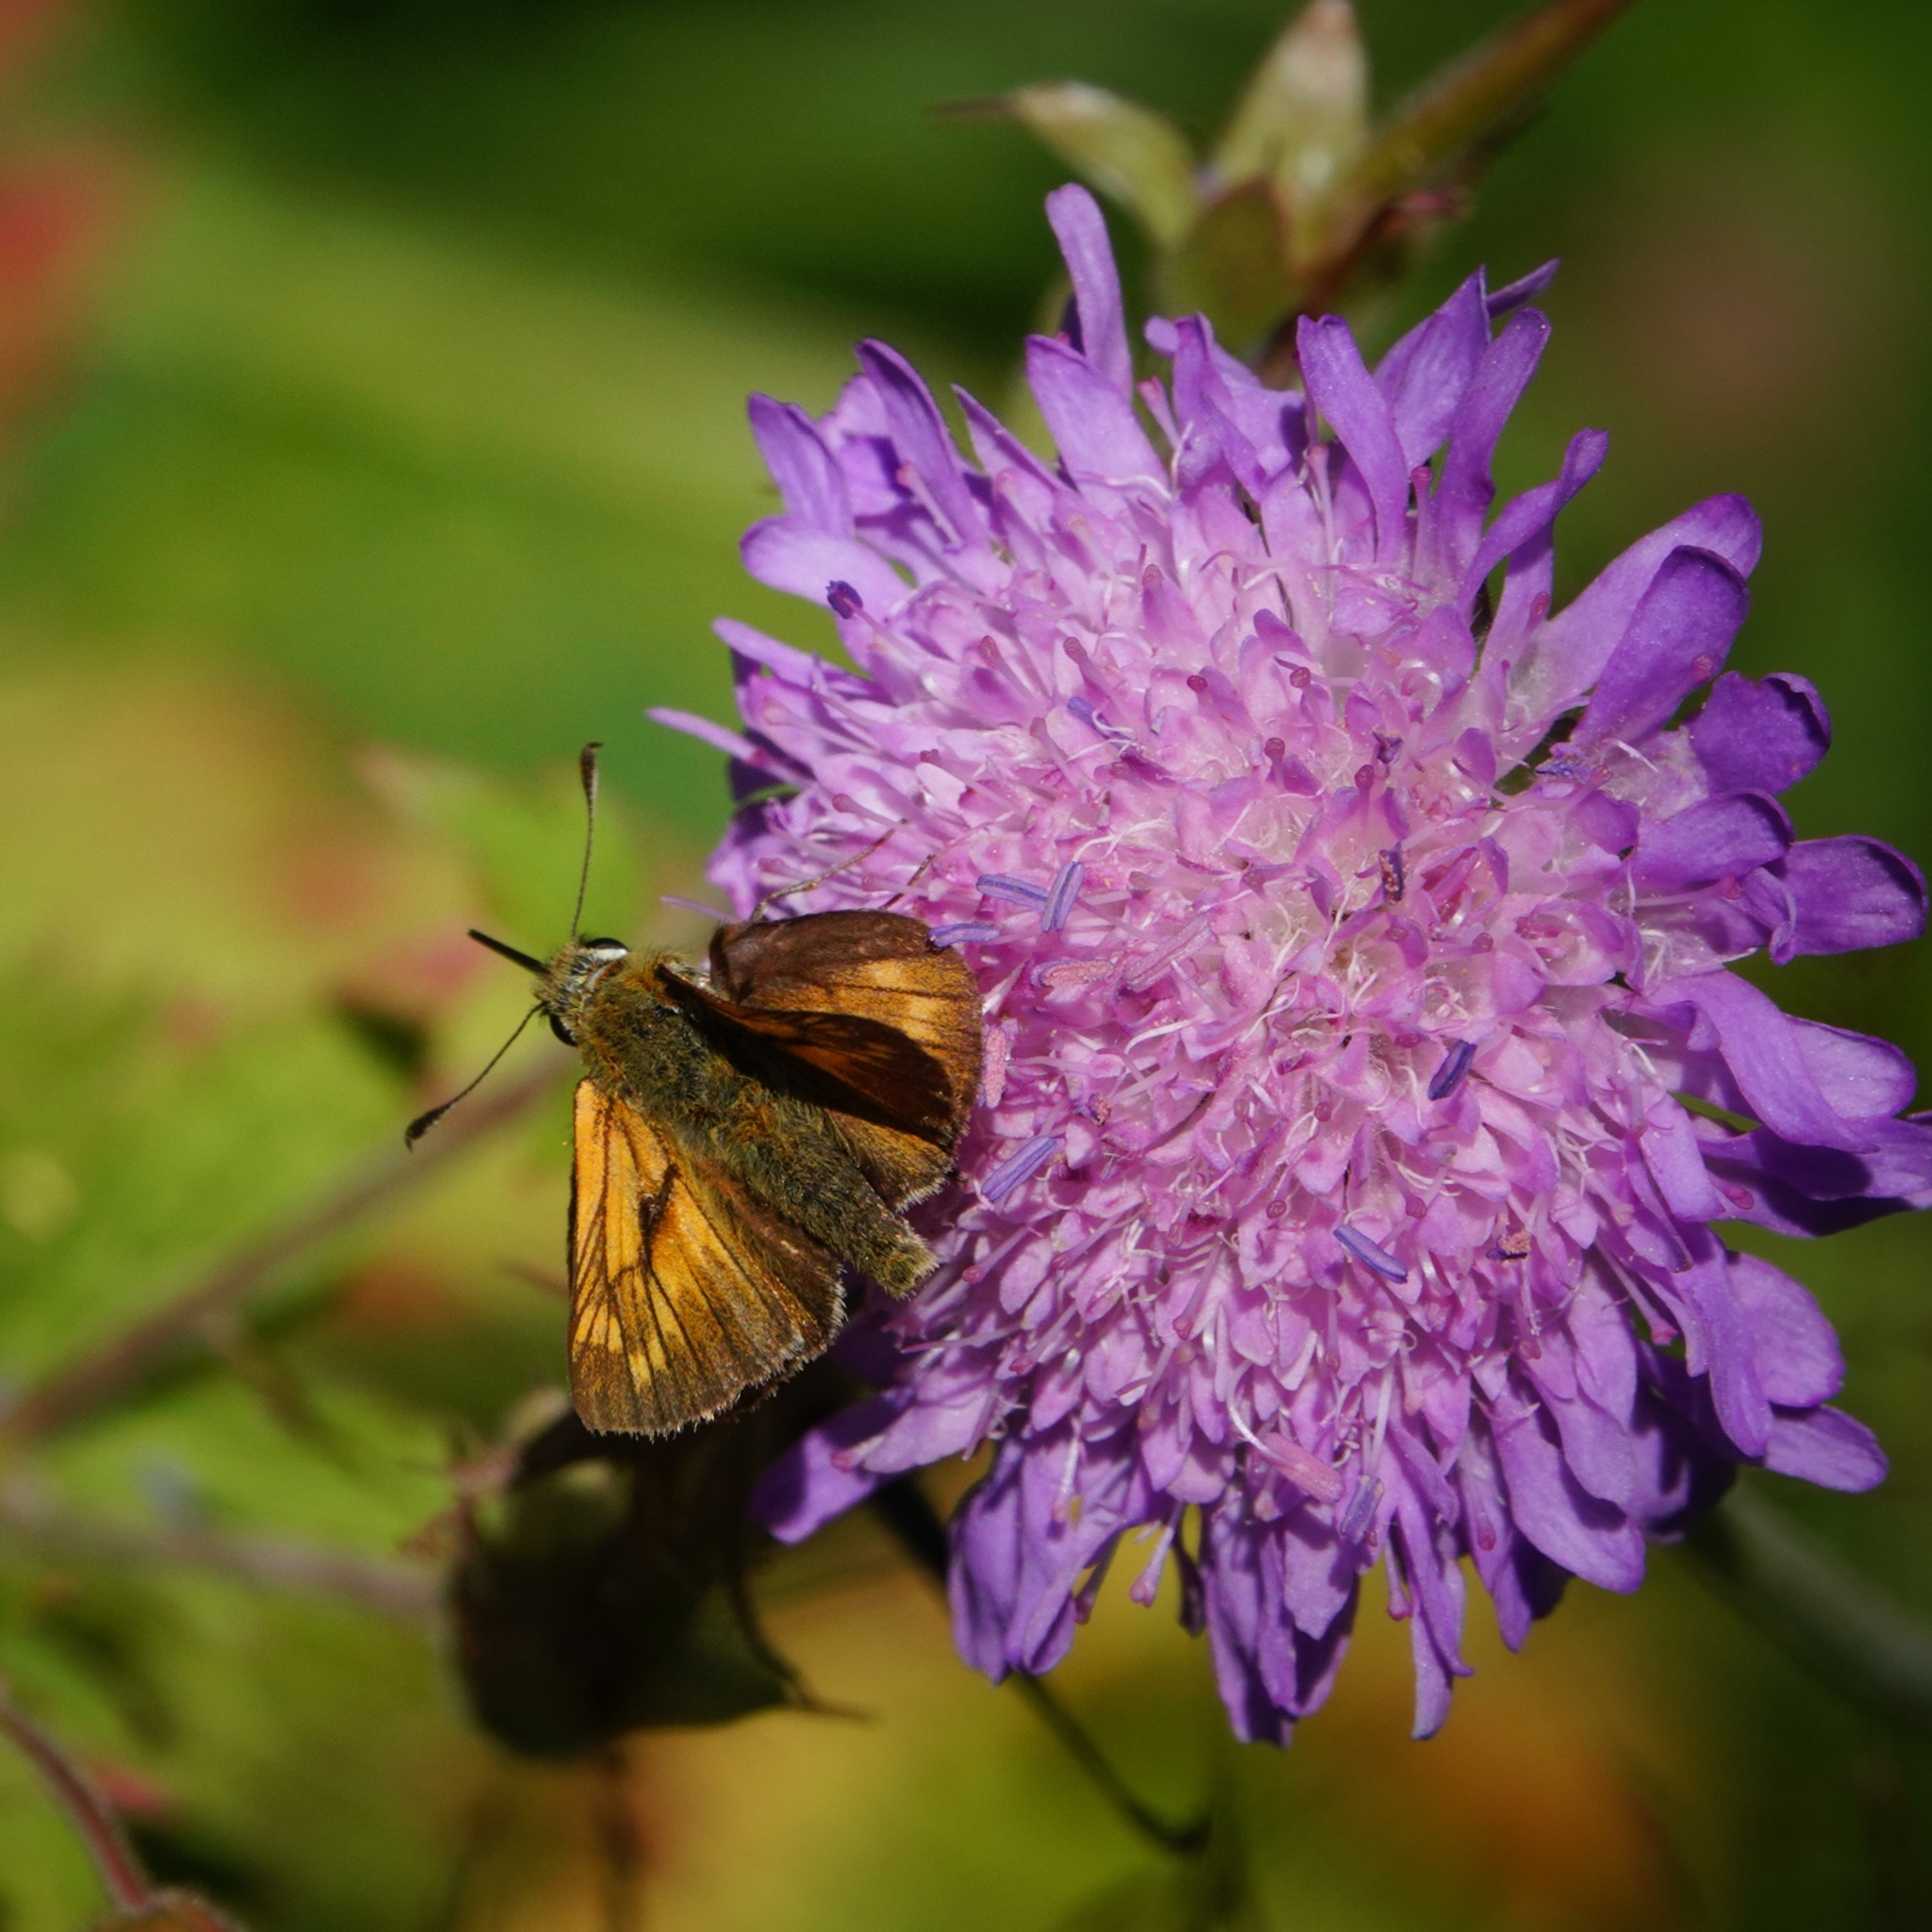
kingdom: Animalia
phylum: Arthropoda
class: Insecta
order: Lepidoptera
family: Hesperiidae
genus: Ochlodes
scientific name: Ochlodes venata
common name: Large skipper
